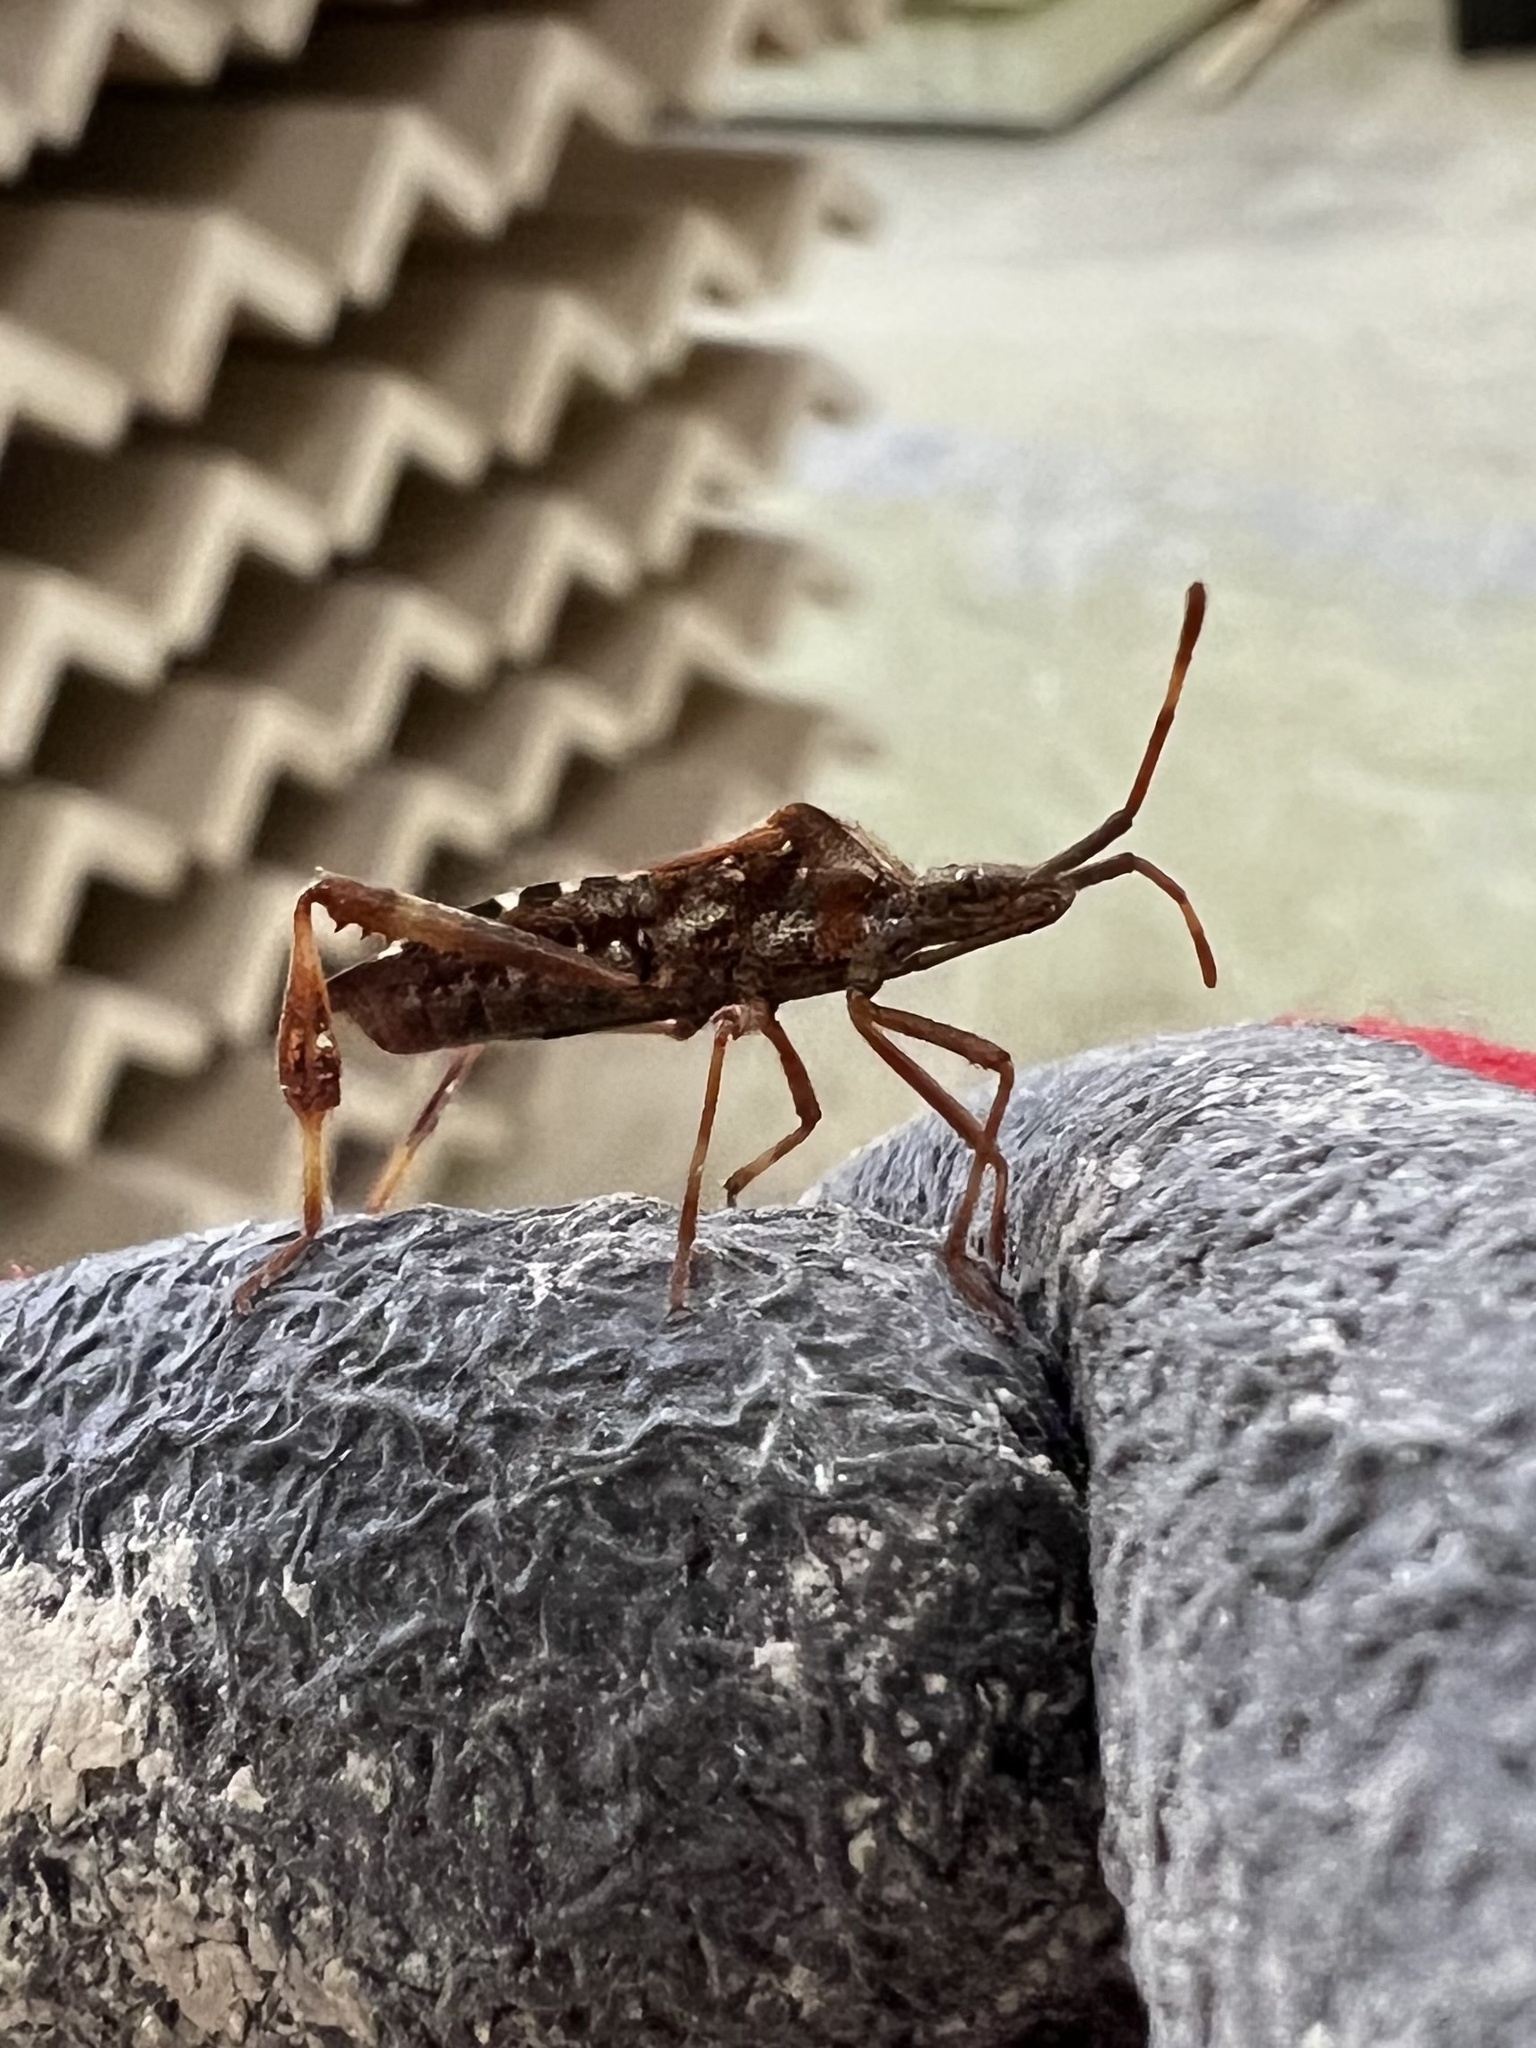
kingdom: Animalia
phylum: Arthropoda
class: Insecta
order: Hemiptera
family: Coreidae
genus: Leptoglossus
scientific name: Leptoglossus occidentalis
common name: Western conifer-seed bug
